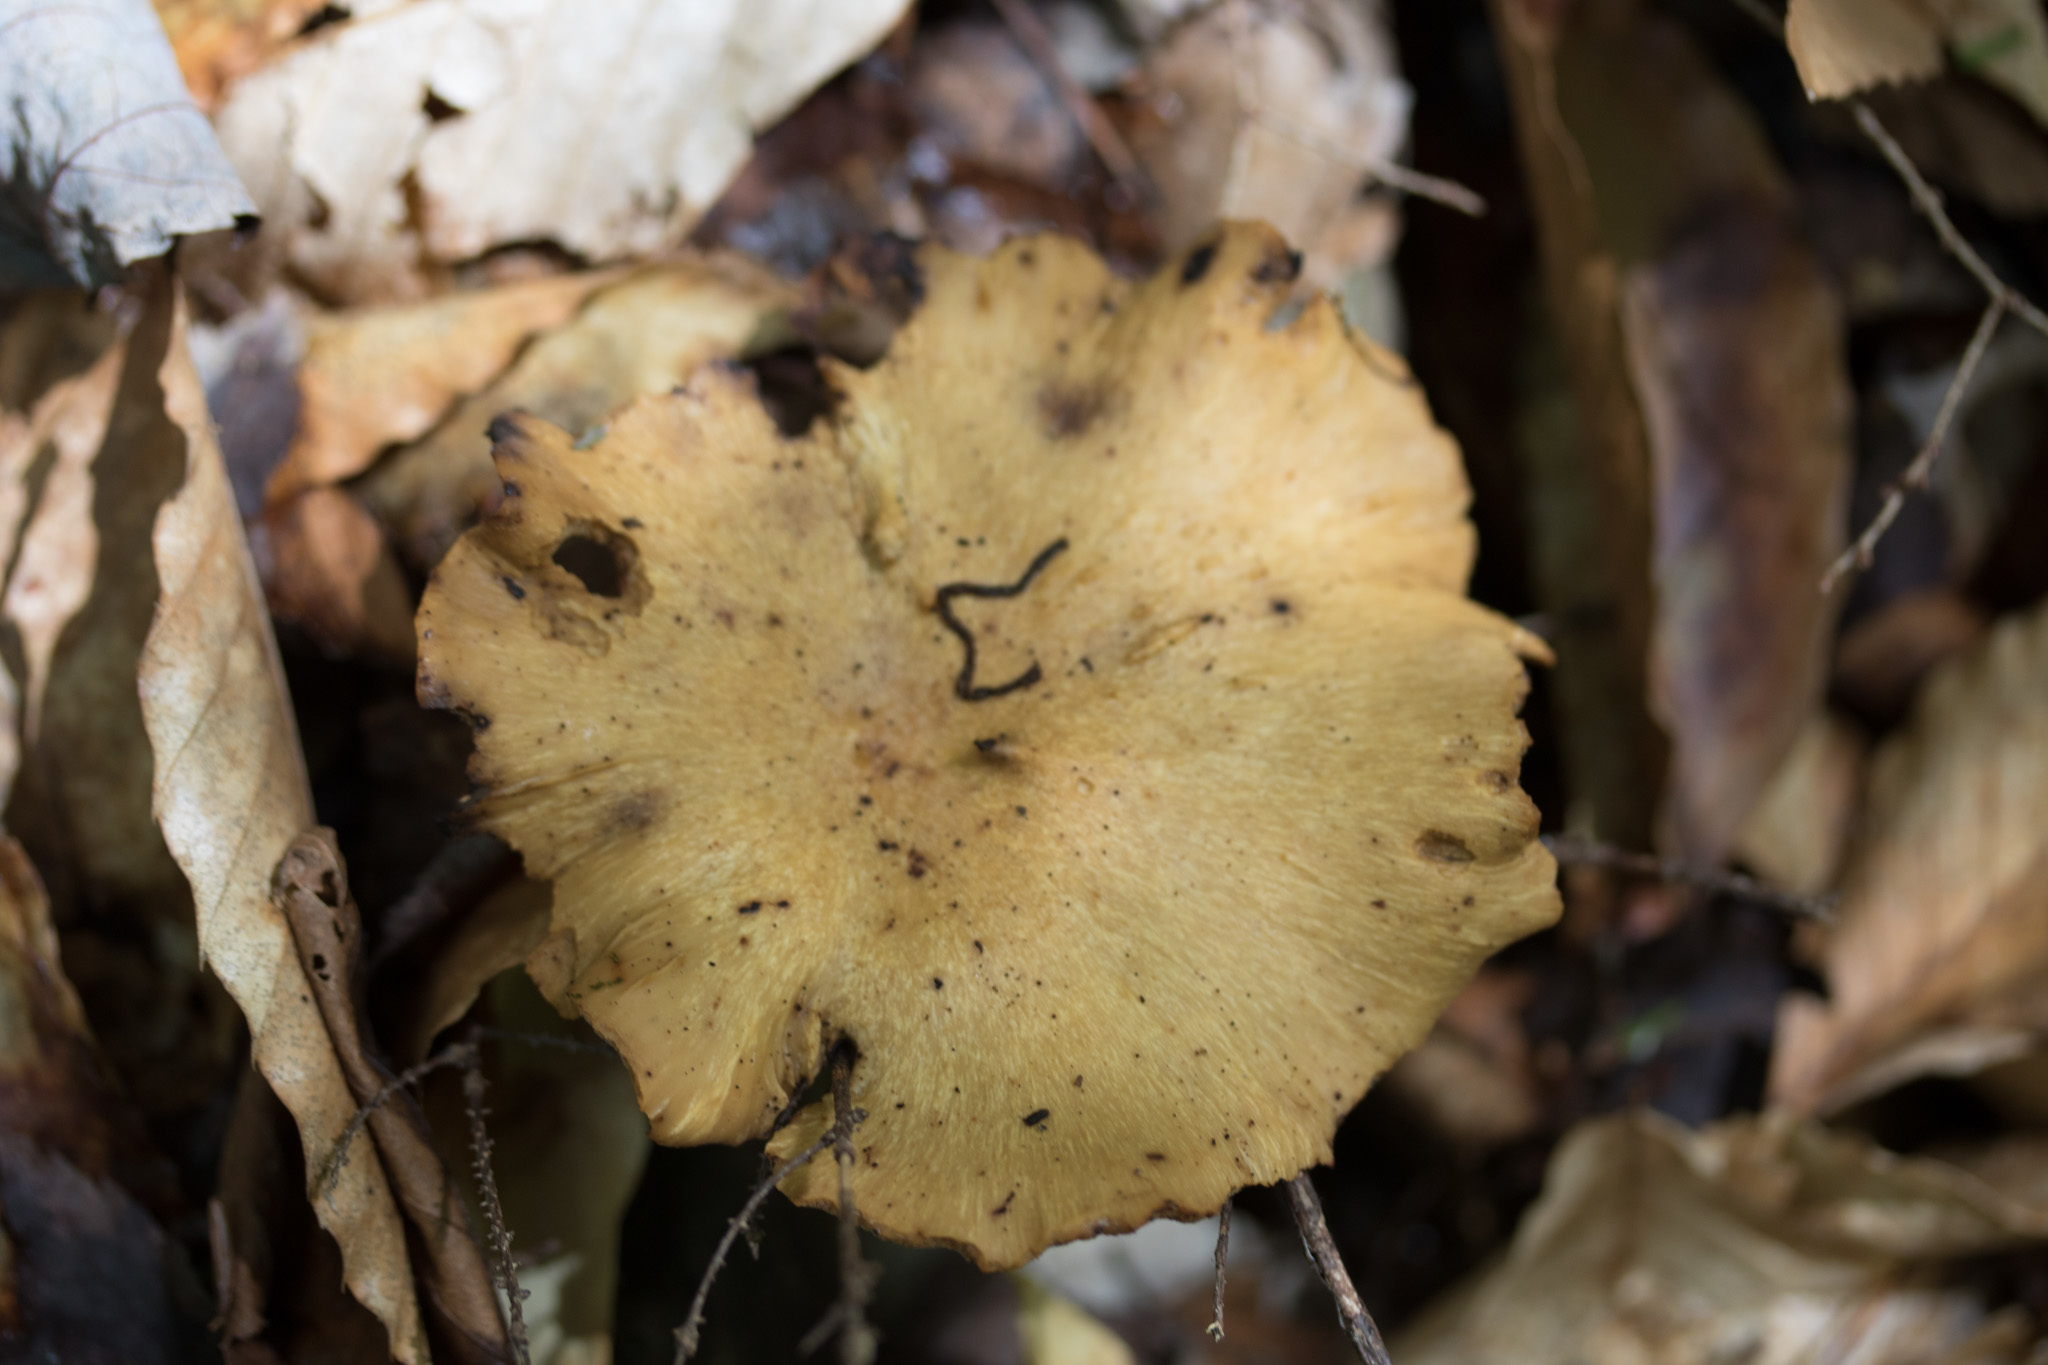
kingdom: Fungi
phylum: Basidiomycota
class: Agaricomycetes
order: Polyporales
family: Polyporaceae
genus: Picipes
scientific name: Picipes badius
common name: Bay polypore
